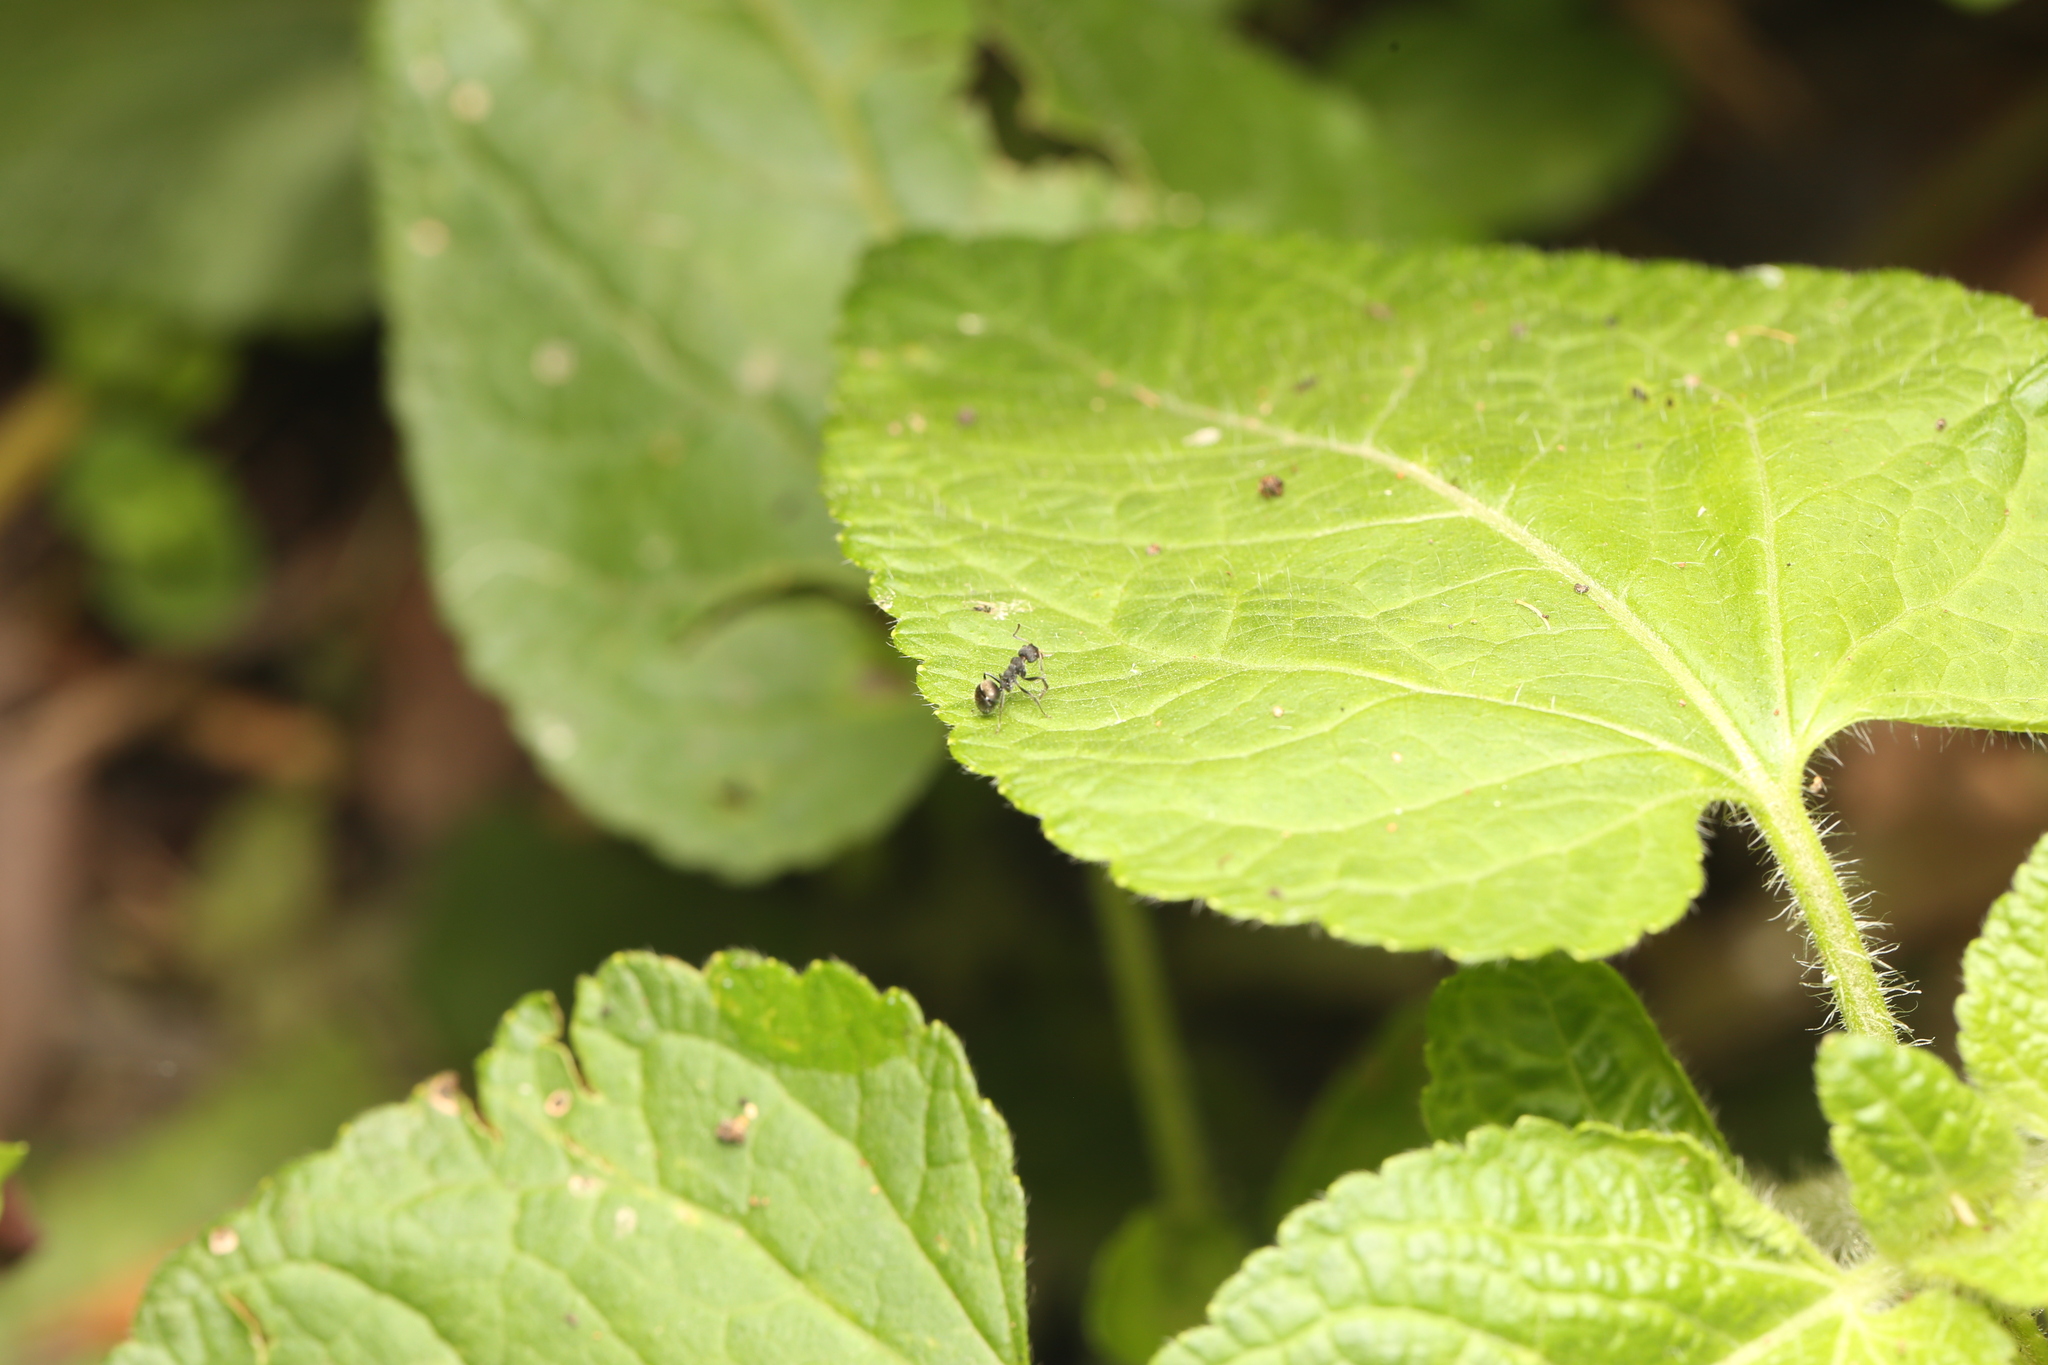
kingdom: Animalia
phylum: Arthropoda
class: Insecta
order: Hymenoptera
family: Formicidae
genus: Dolichoderus
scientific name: Dolichoderus scrobiculatus
